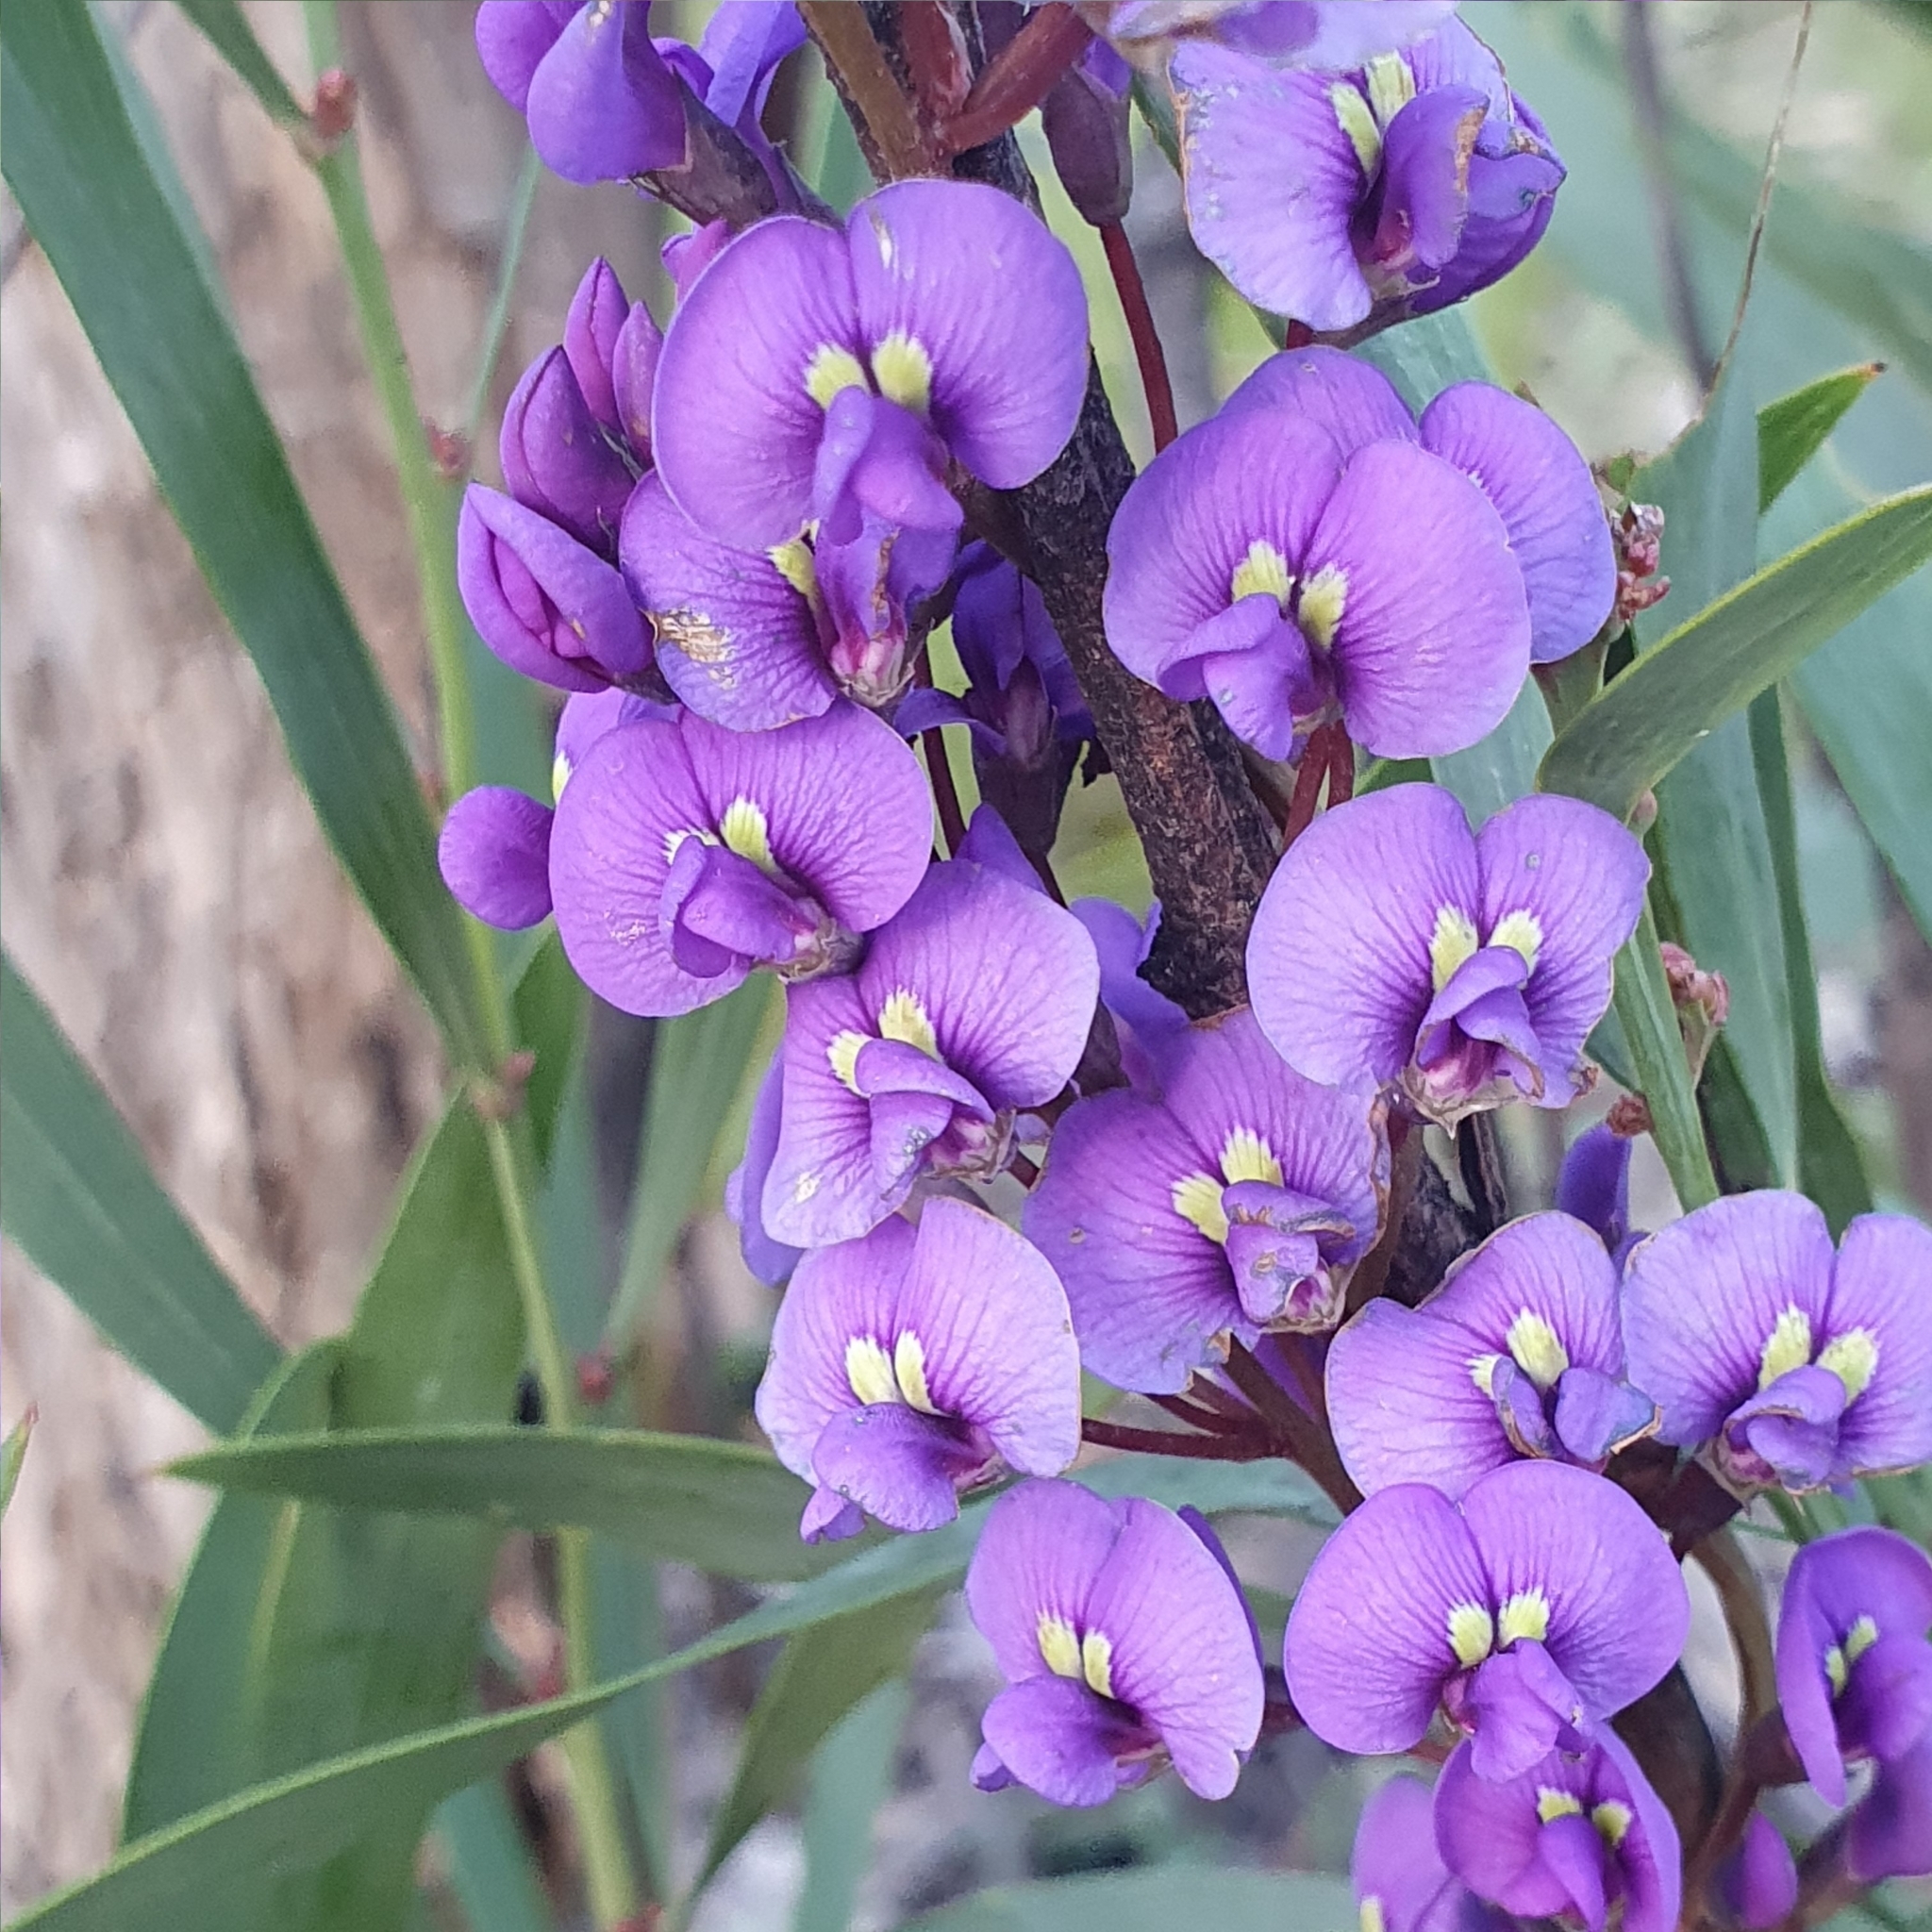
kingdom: Plantae
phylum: Tracheophyta
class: Magnoliopsida
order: Fabales
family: Fabaceae
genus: Hardenbergia
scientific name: Hardenbergia violacea
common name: Coral-pea
